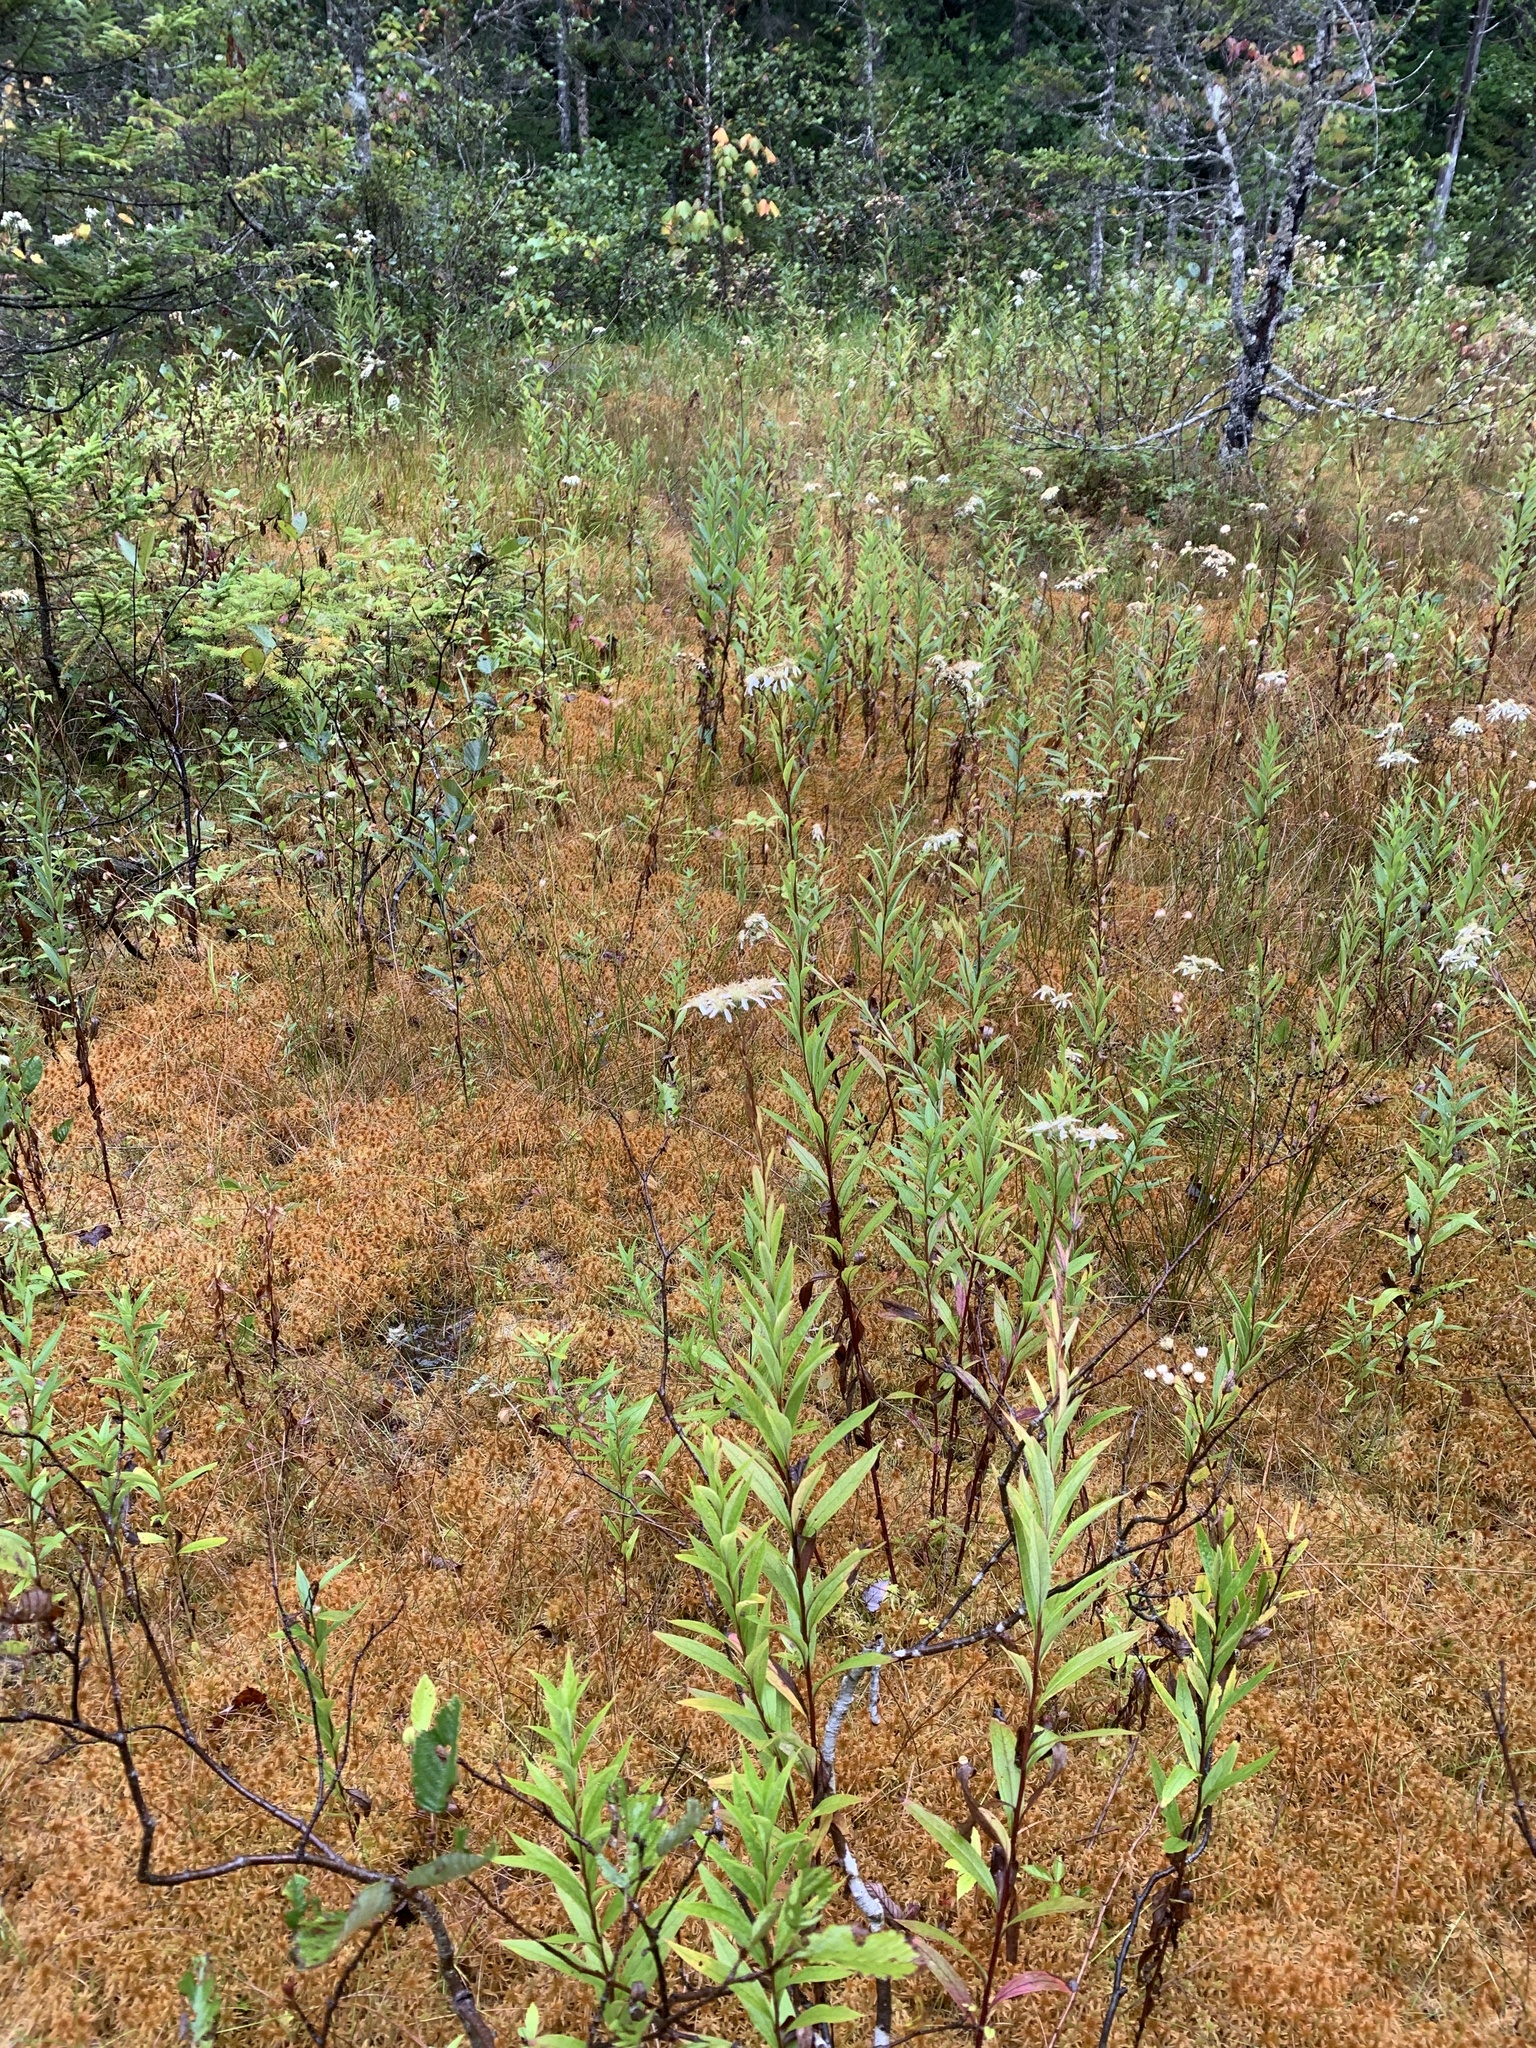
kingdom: Plantae
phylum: Tracheophyta
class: Magnoliopsida
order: Asterales
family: Asteraceae
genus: Doellingeria
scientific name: Doellingeria umbellata
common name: Flat-top white aster
